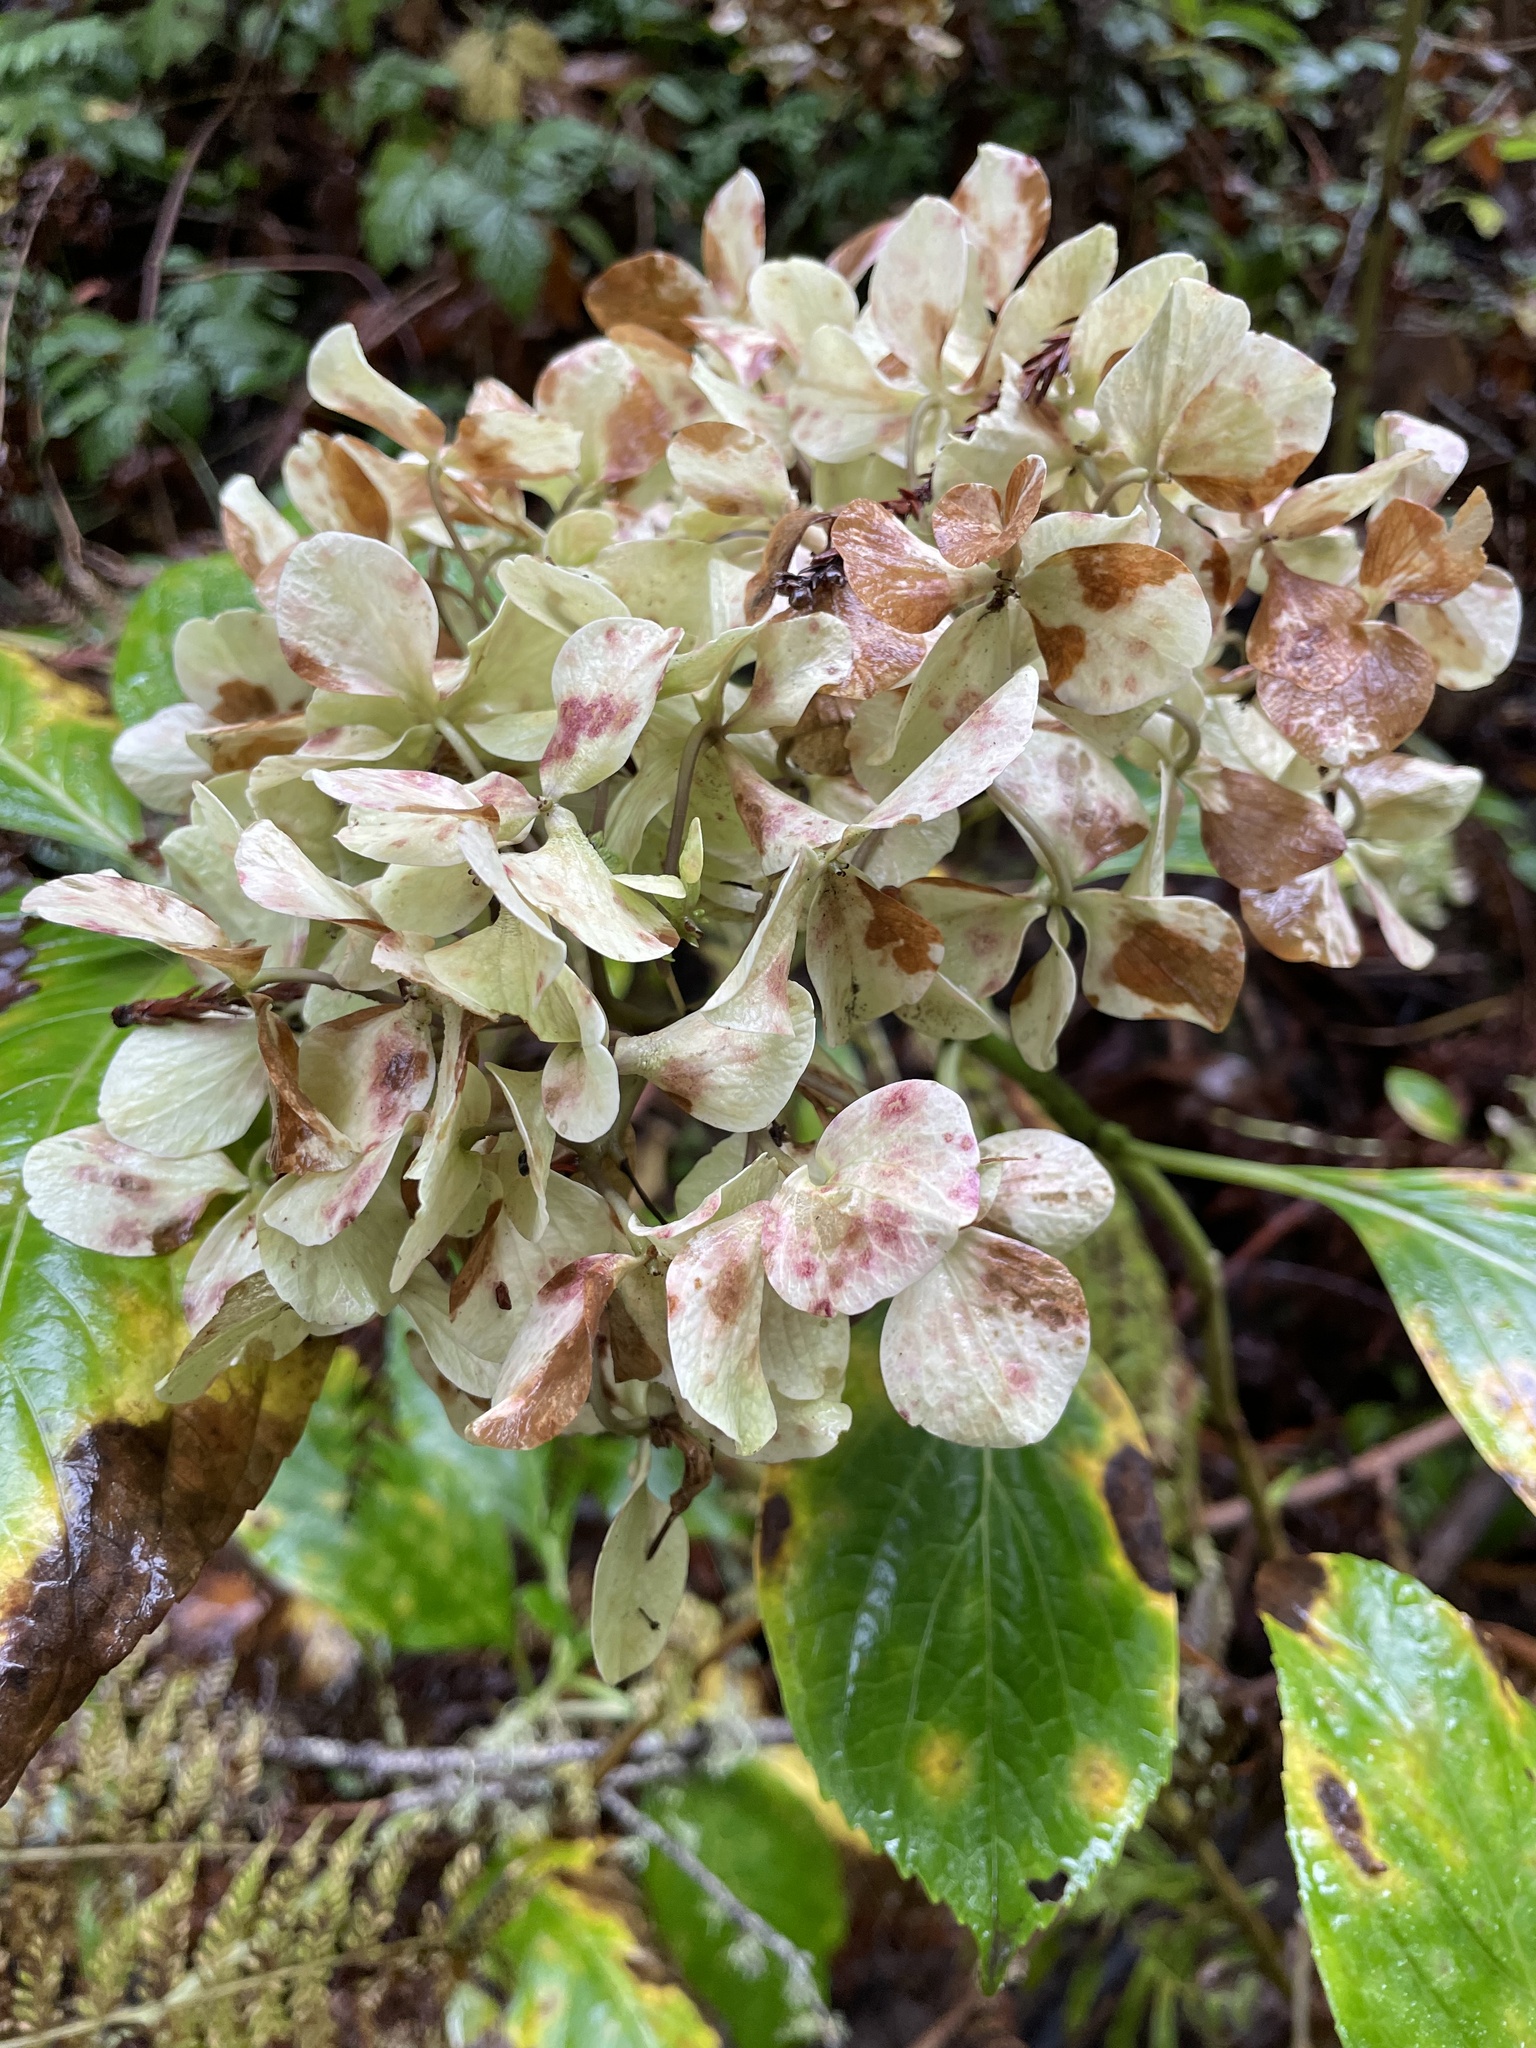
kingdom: Plantae
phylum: Tracheophyta
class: Magnoliopsida
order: Cornales
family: Hydrangeaceae
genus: Hydrangea
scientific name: Hydrangea macrophylla
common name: Hydrangea
